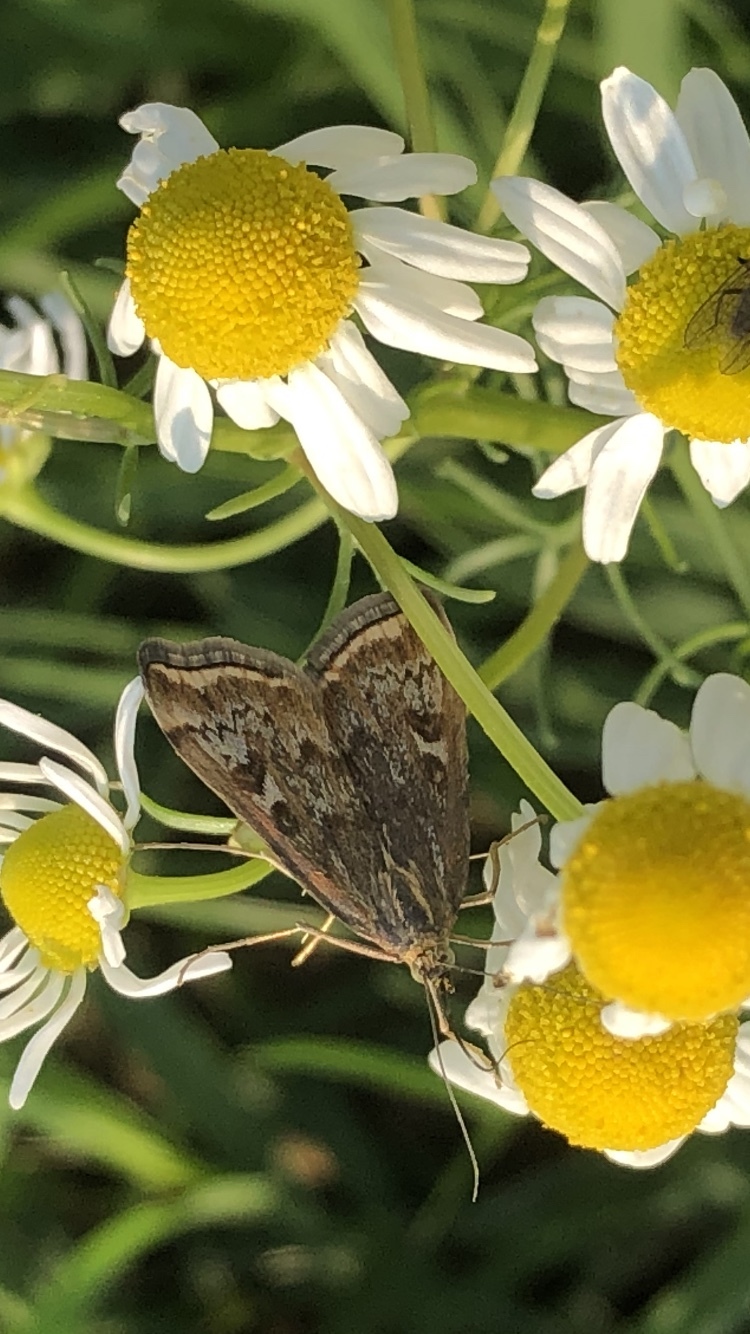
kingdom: Animalia
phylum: Arthropoda
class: Insecta
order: Lepidoptera
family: Crambidae
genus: Loxostege
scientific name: Loxostege sticticalis
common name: Crambid moth
